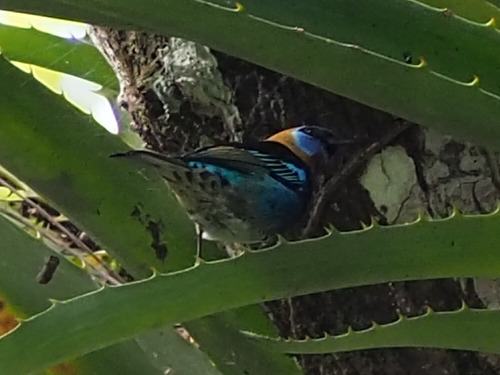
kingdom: Animalia
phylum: Chordata
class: Aves
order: Passeriformes
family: Thraupidae
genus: Stilpnia
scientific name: Stilpnia larvata
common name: Golden-hooded tanager
